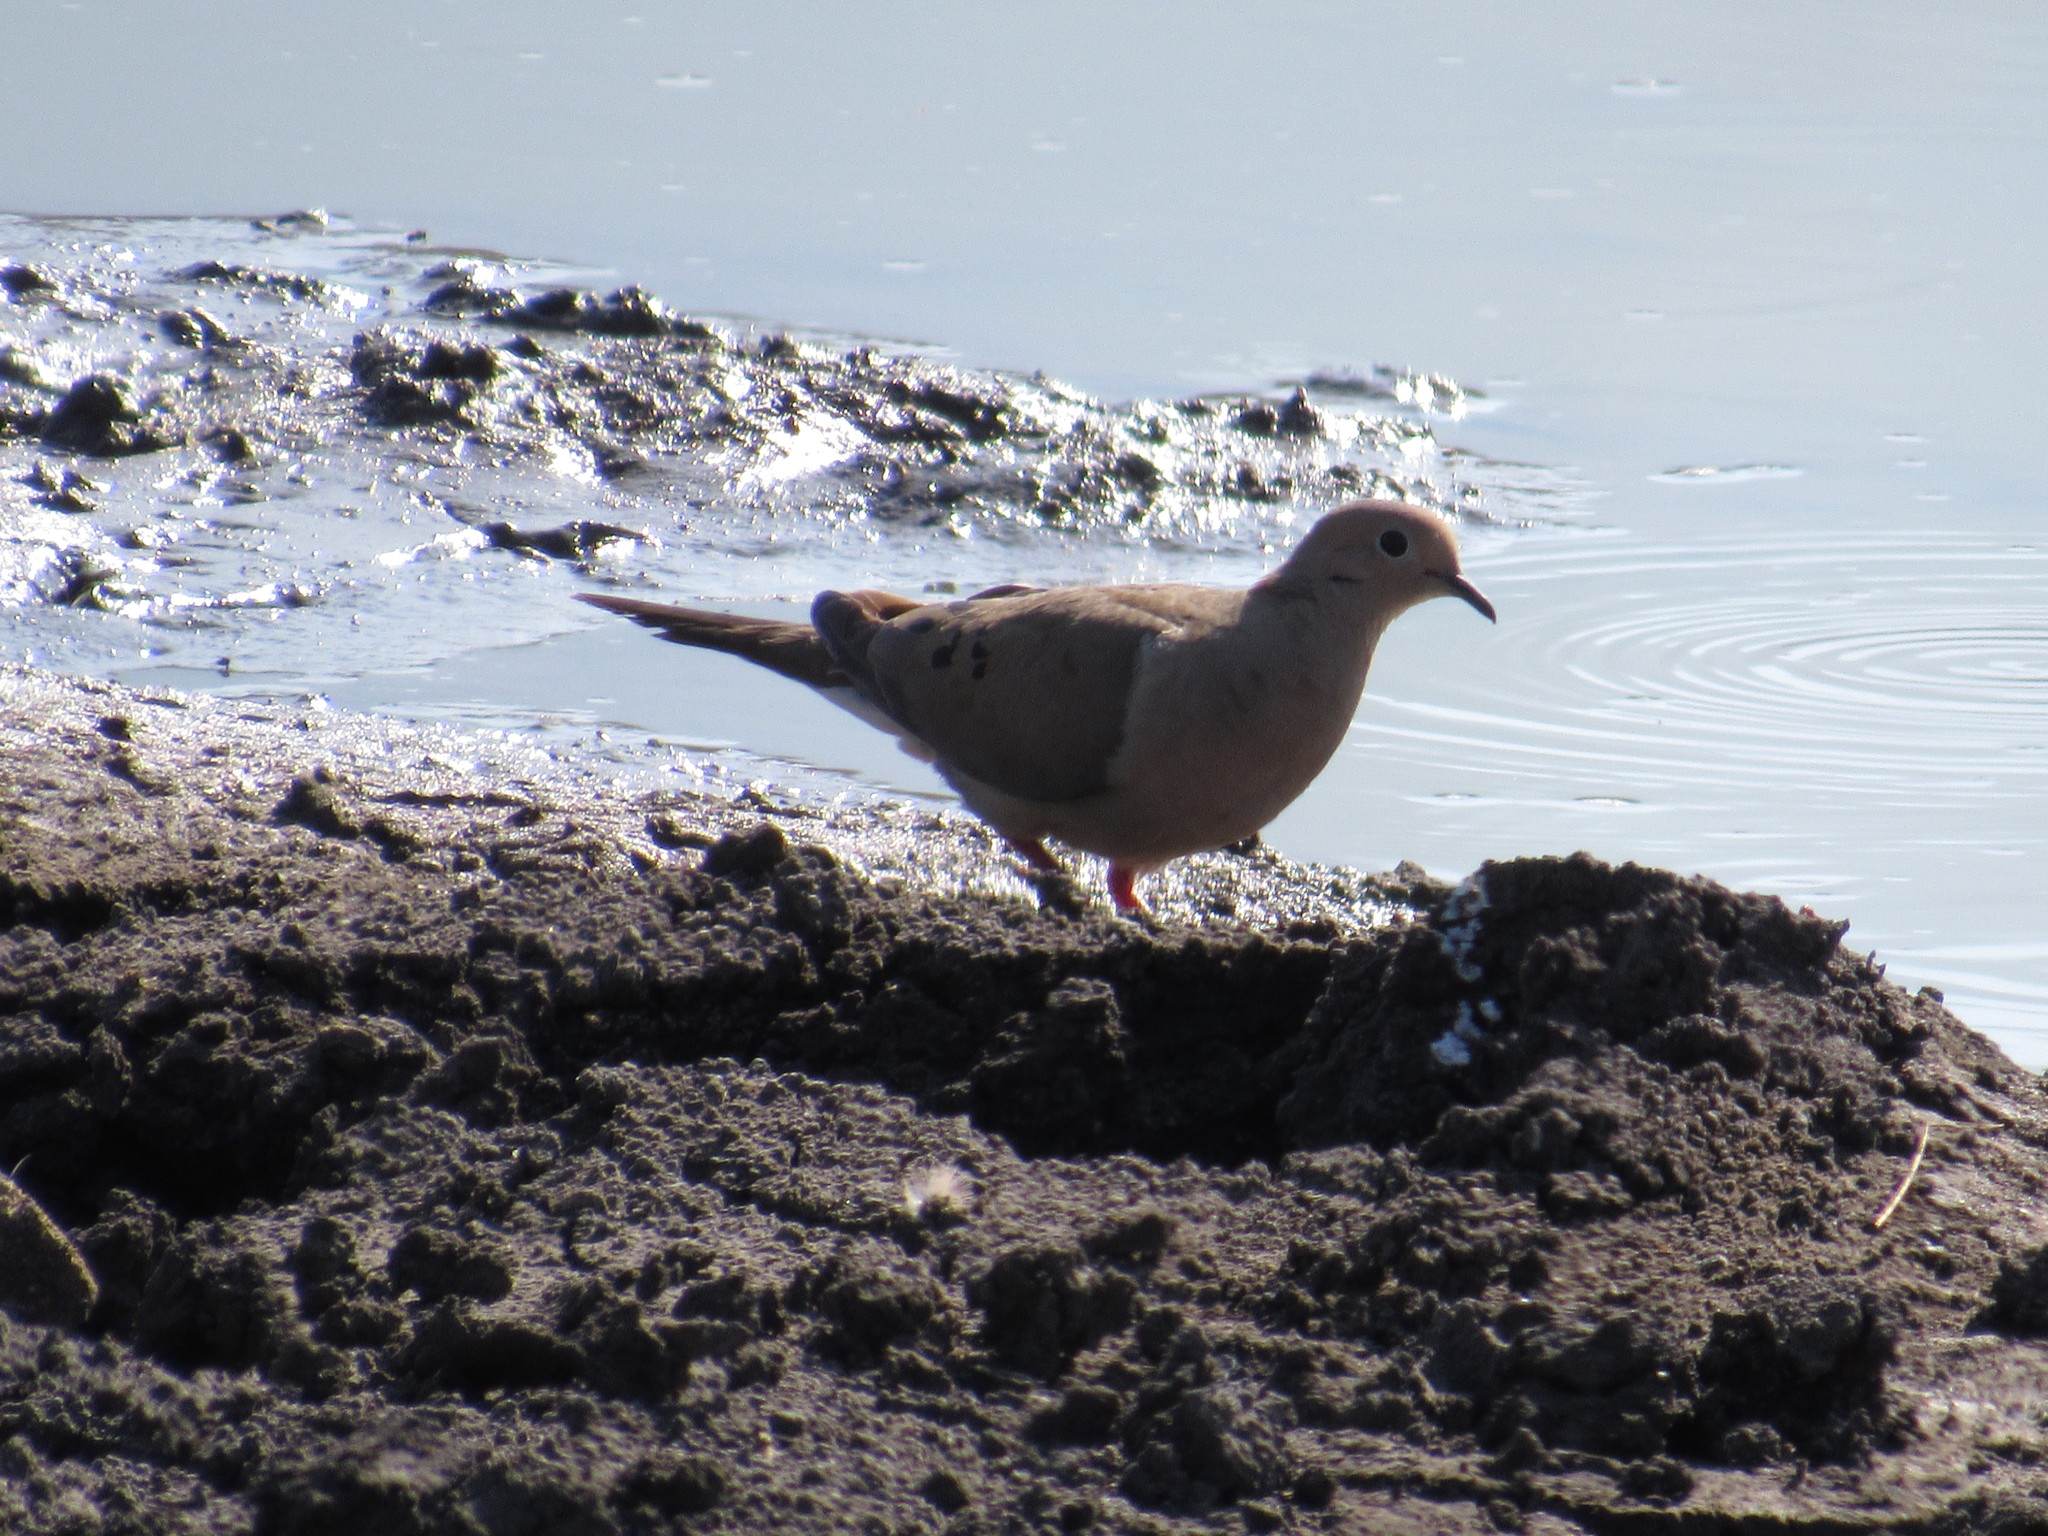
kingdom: Animalia
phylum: Chordata
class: Aves
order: Columbiformes
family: Columbidae
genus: Zenaida
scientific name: Zenaida macroura
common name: Mourning dove
